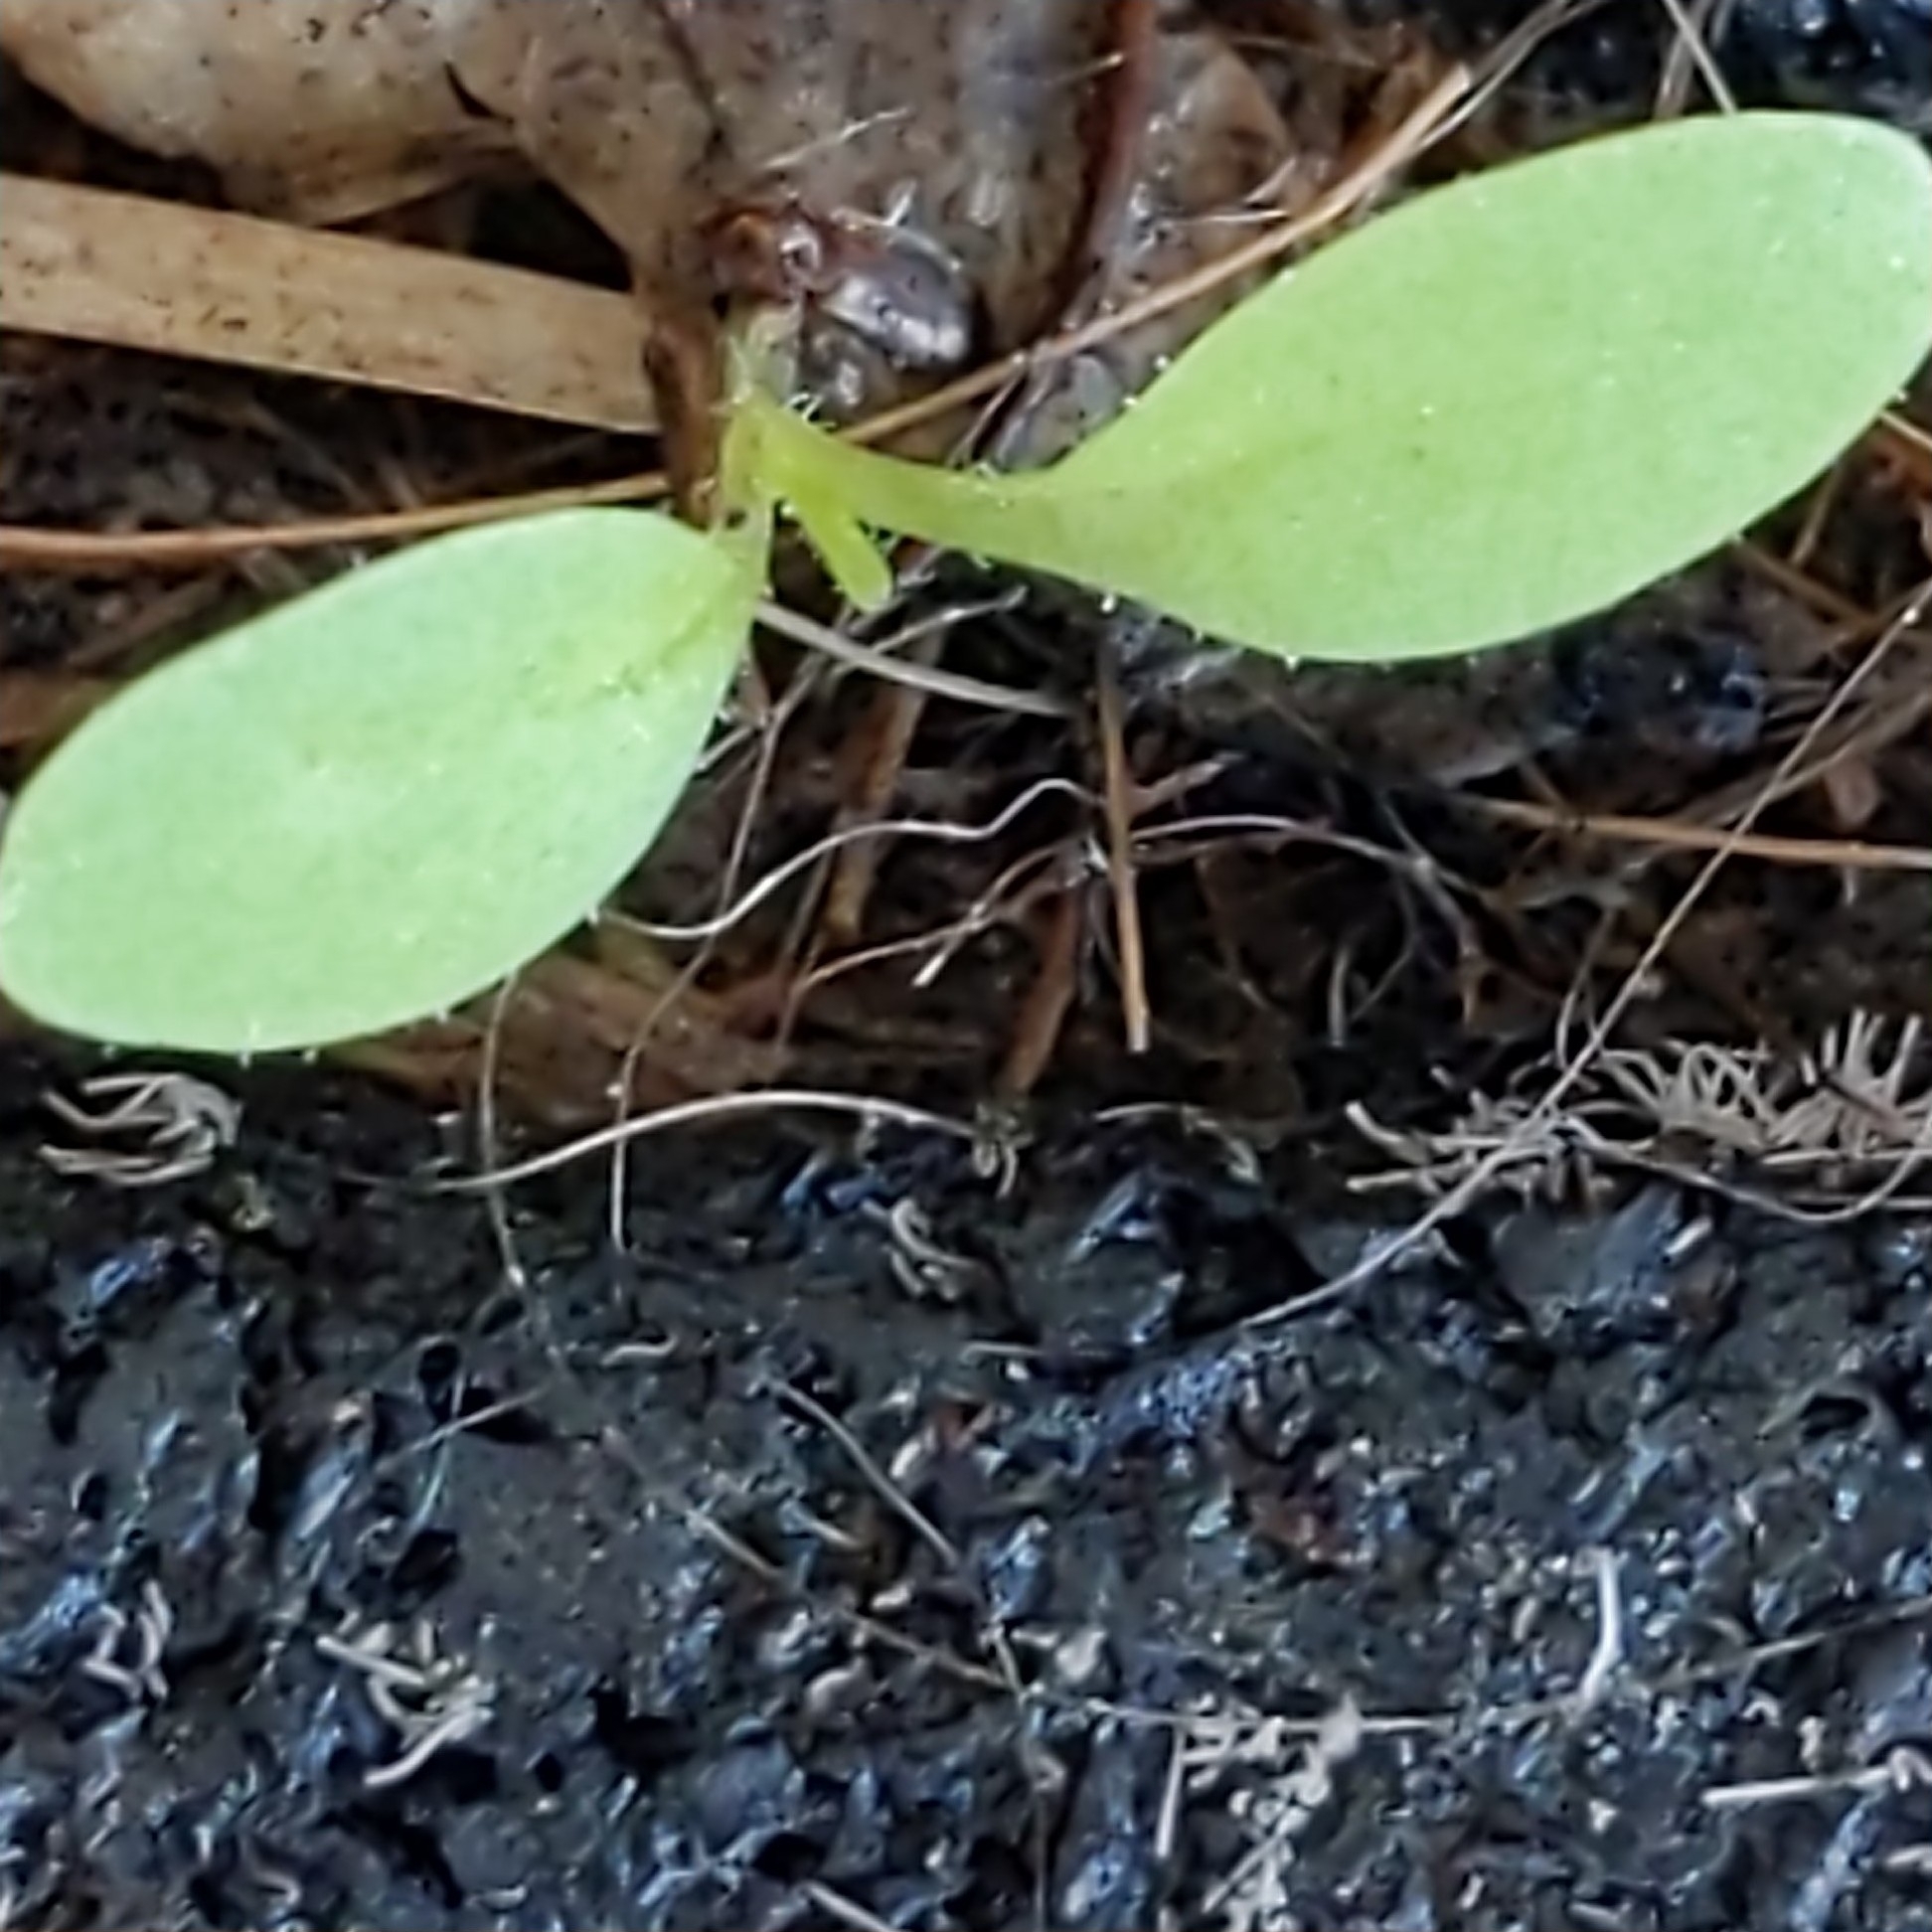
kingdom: Plantae
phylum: Tracheophyta
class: Magnoliopsida
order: Asterales
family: Asteraceae
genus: Lactuca
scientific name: Lactuca serriola
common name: Prickly lettuce
